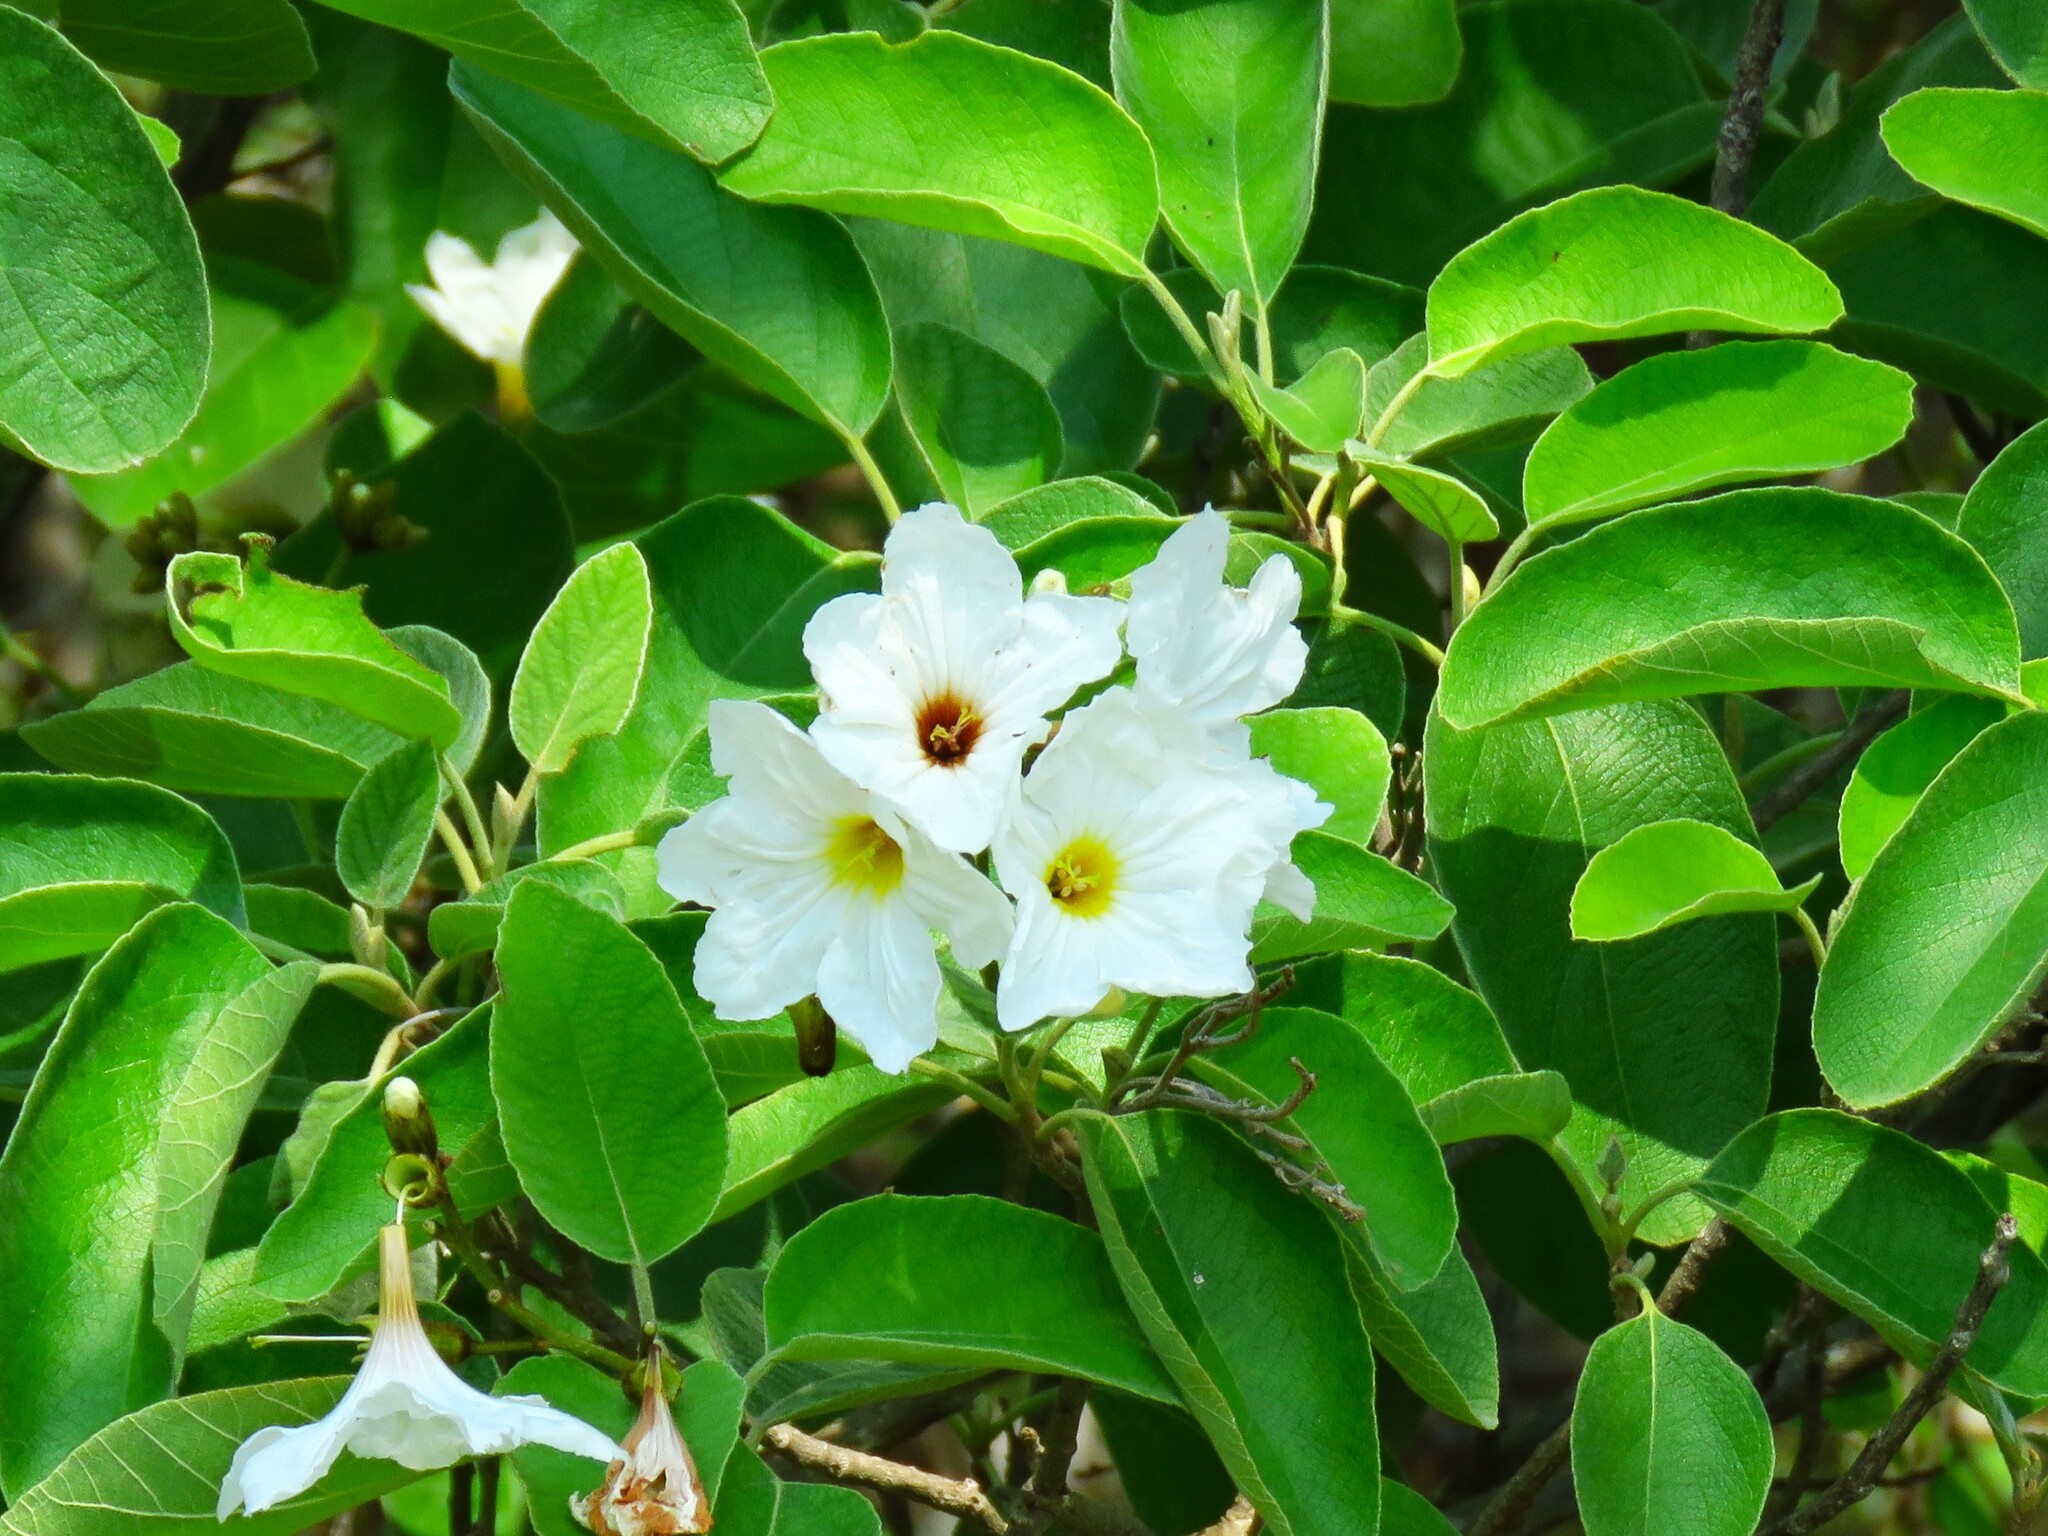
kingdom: Plantae
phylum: Tracheophyta
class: Magnoliopsida
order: Boraginales
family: Cordiaceae
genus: Cordia
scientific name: Cordia boissieri
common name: Mexican-olive
